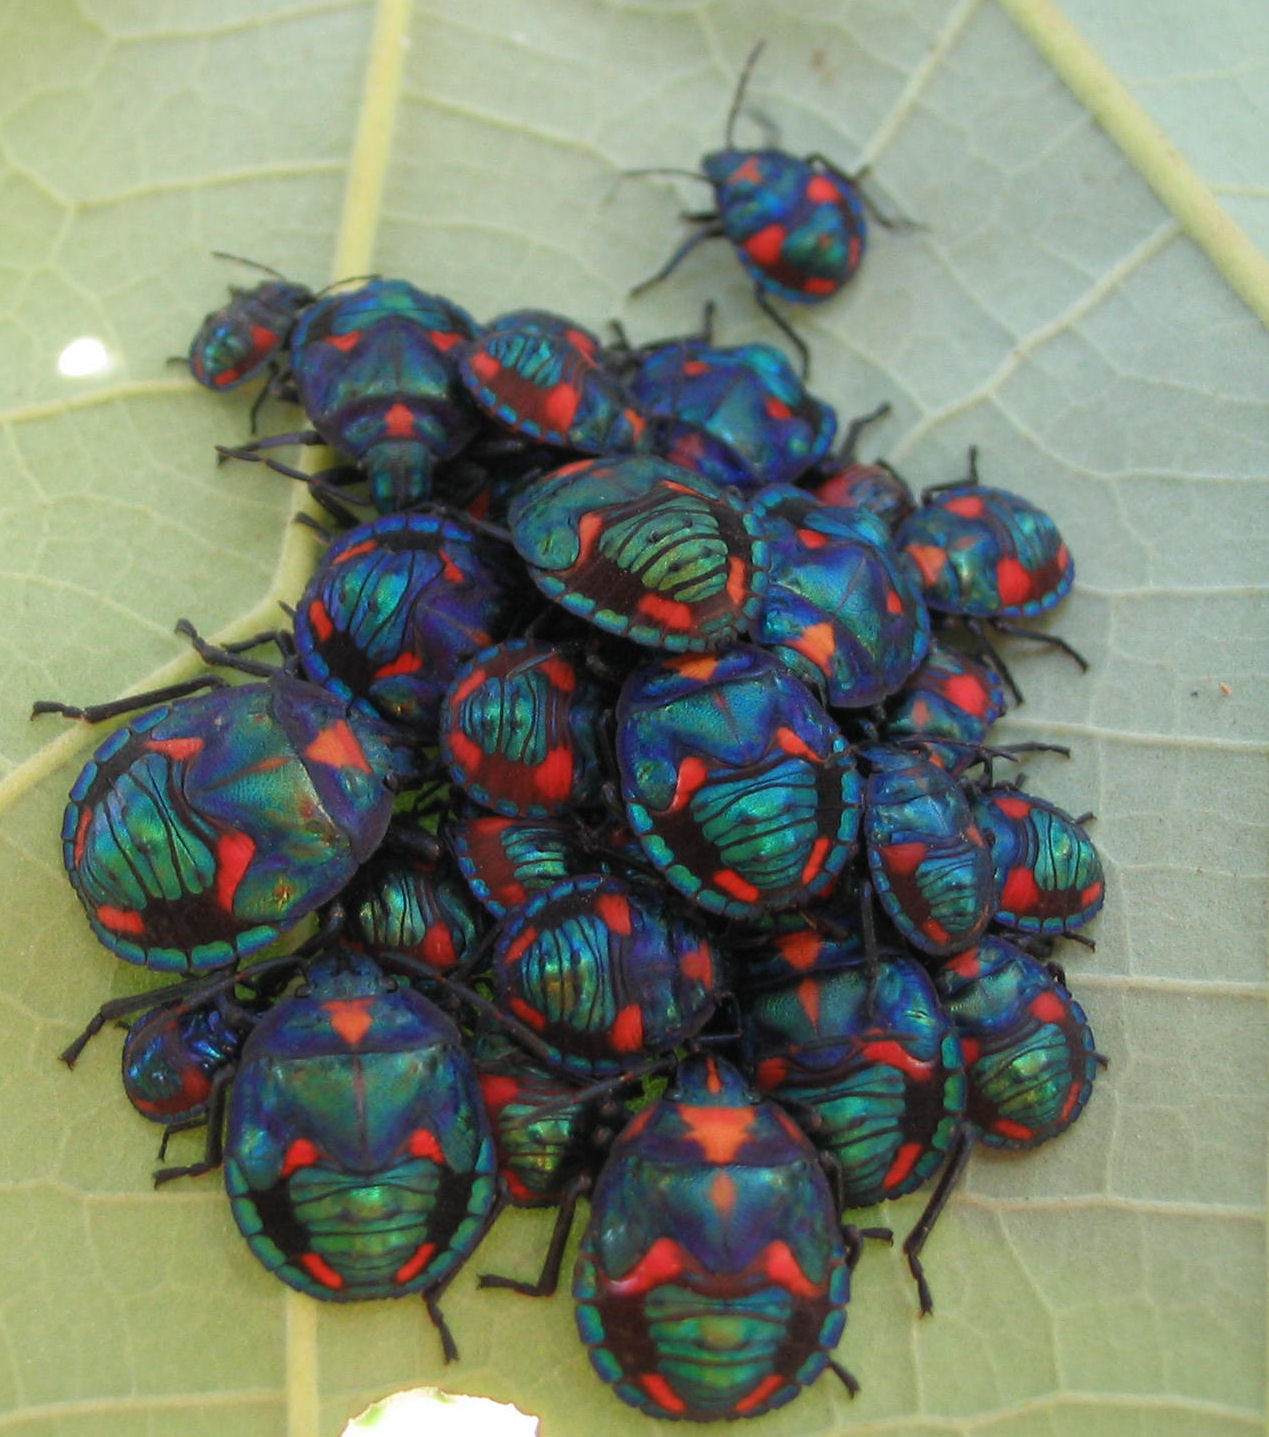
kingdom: Animalia
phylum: Arthropoda
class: Insecta
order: Hemiptera
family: Scutelleridae
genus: Tectocoris
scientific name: Tectocoris diophthalmus
